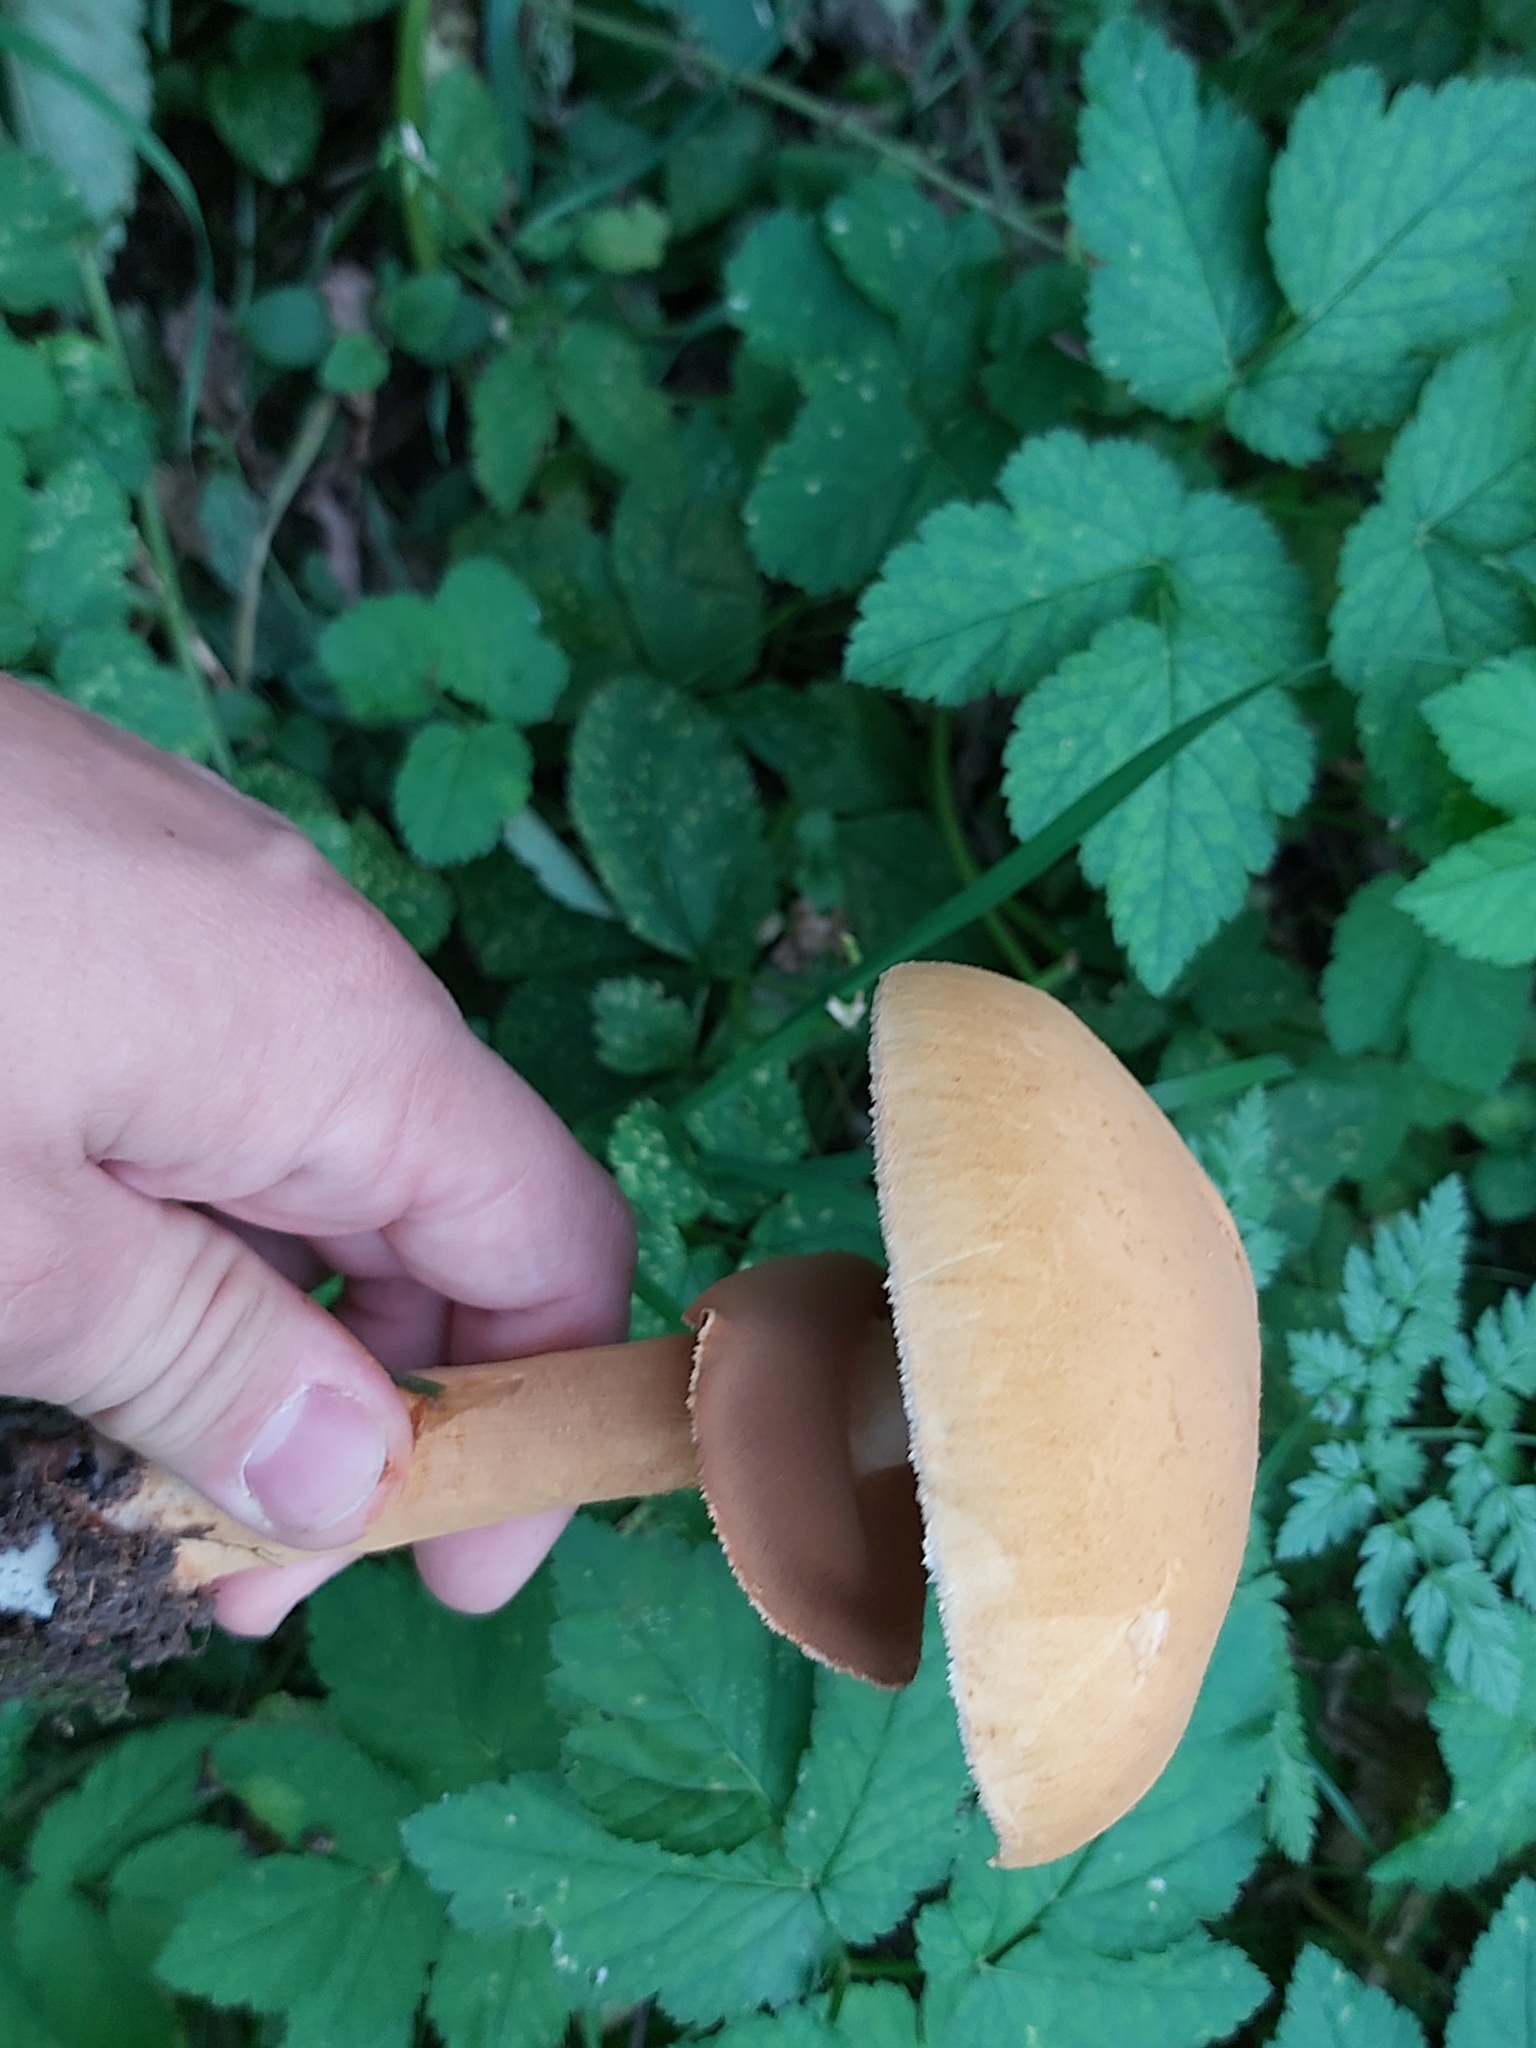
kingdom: Fungi
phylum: Basidiomycota
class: Agaricomycetes
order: Agaricales
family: Tricholomataceae
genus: Phaeolepiota
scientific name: Phaeolepiota aurea
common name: Golden bootleg
